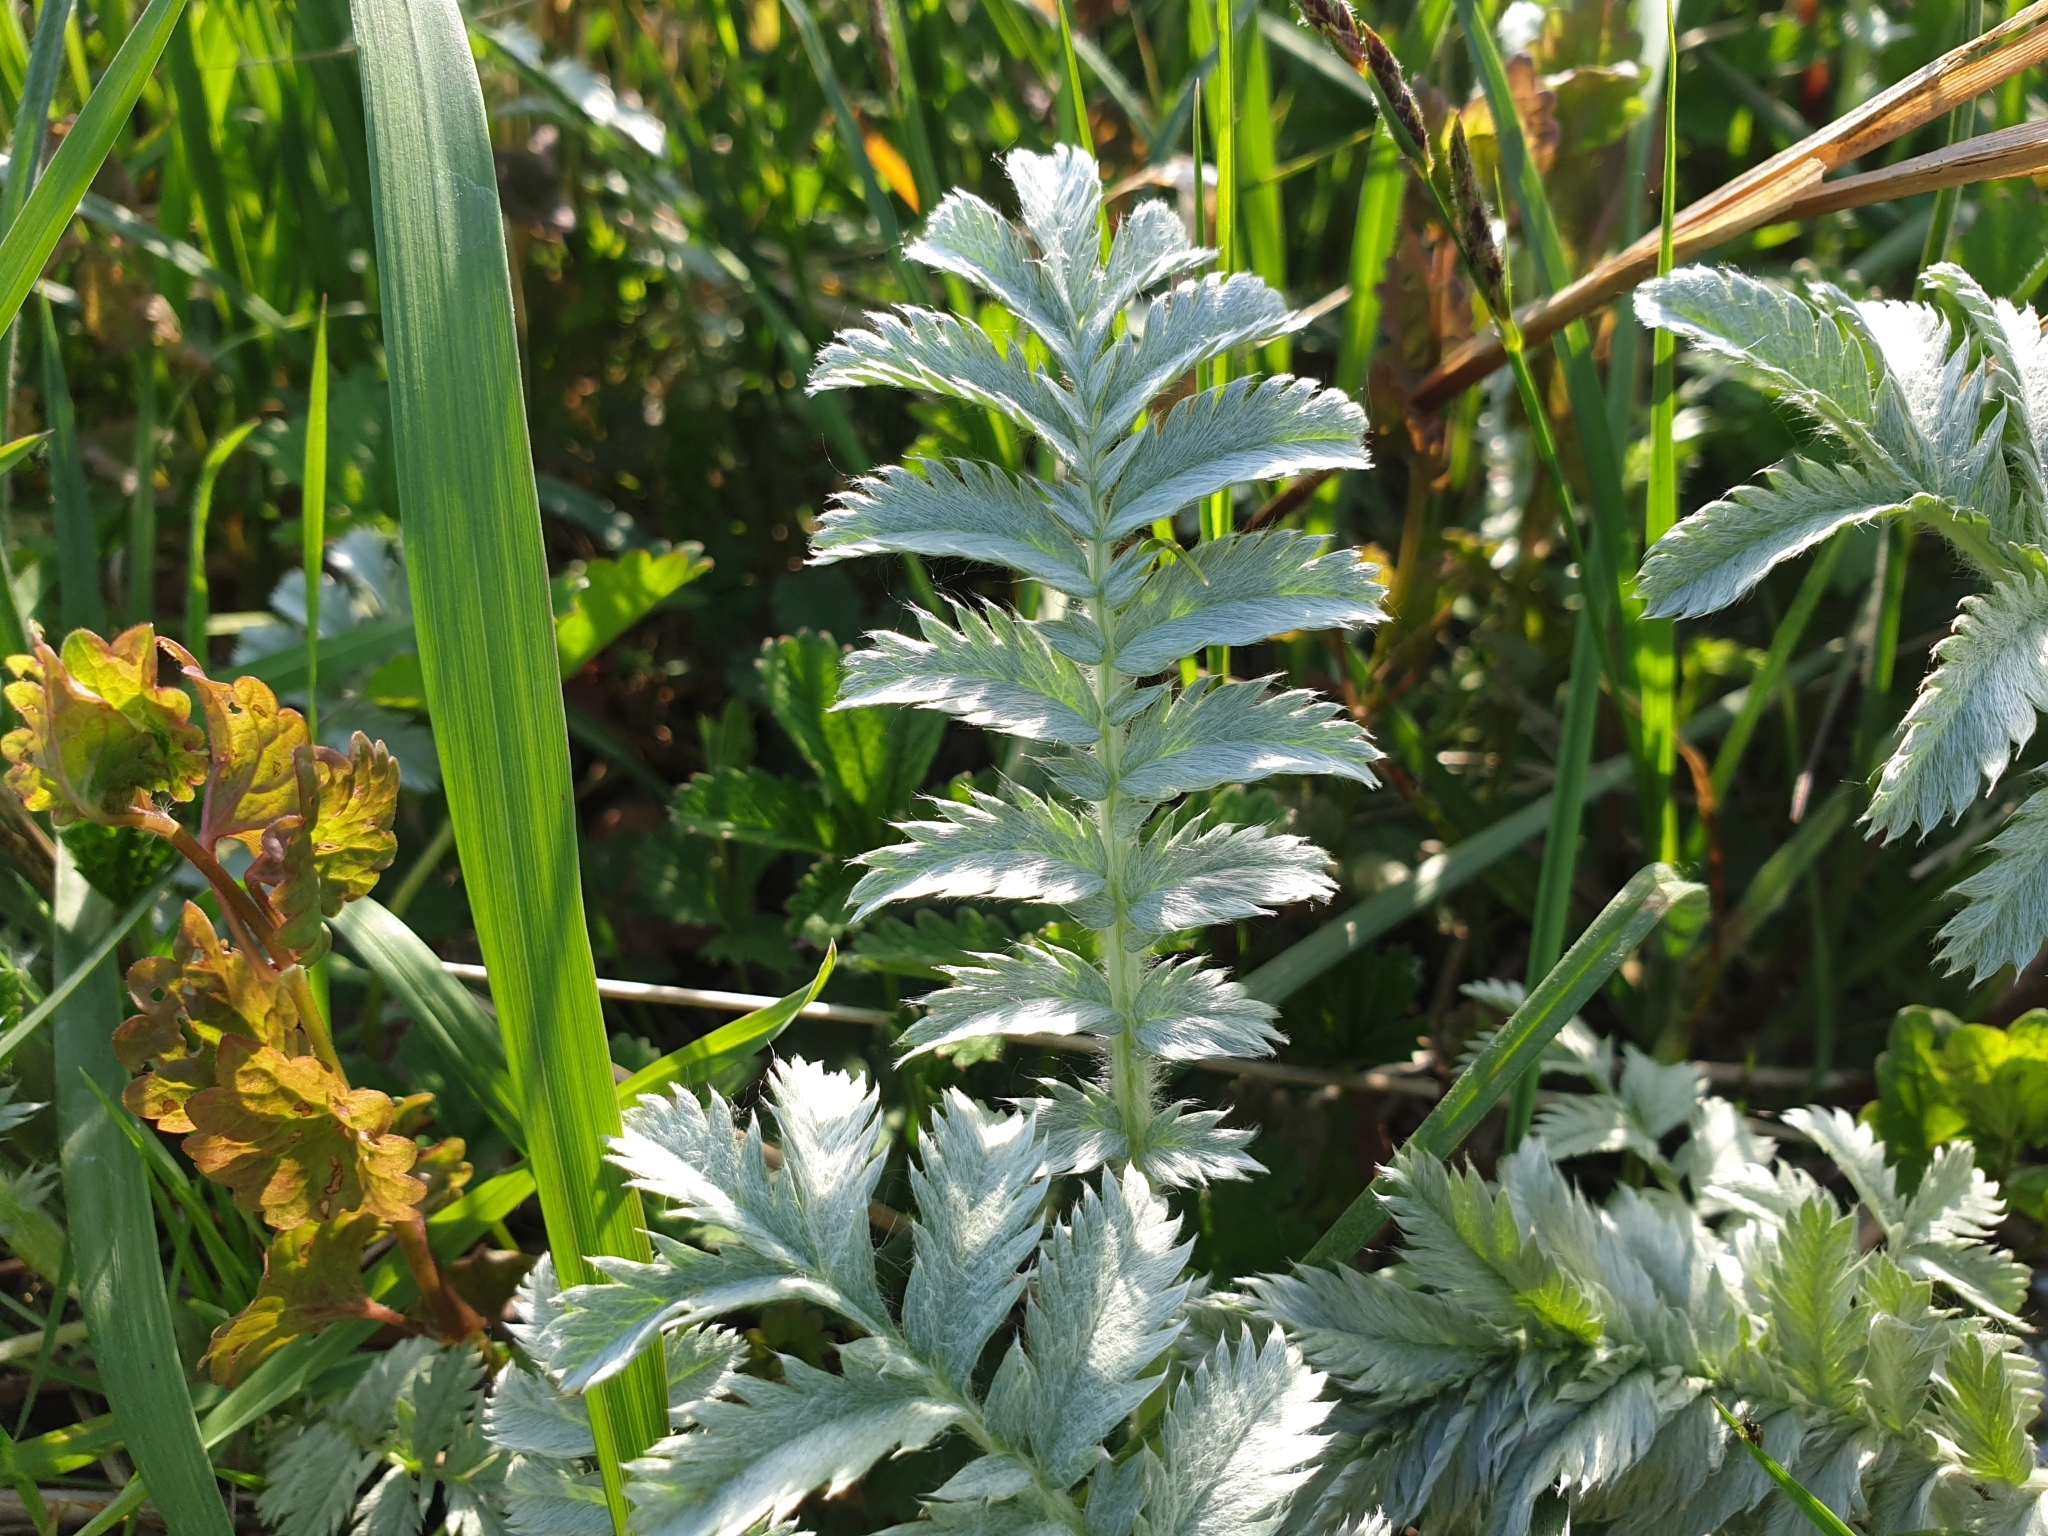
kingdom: Plantae
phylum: Tracheophyta
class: Magnoliopsida
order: Rosales
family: Rosaceae
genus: Argentina
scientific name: Argentina anserina
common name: Common silverweed
